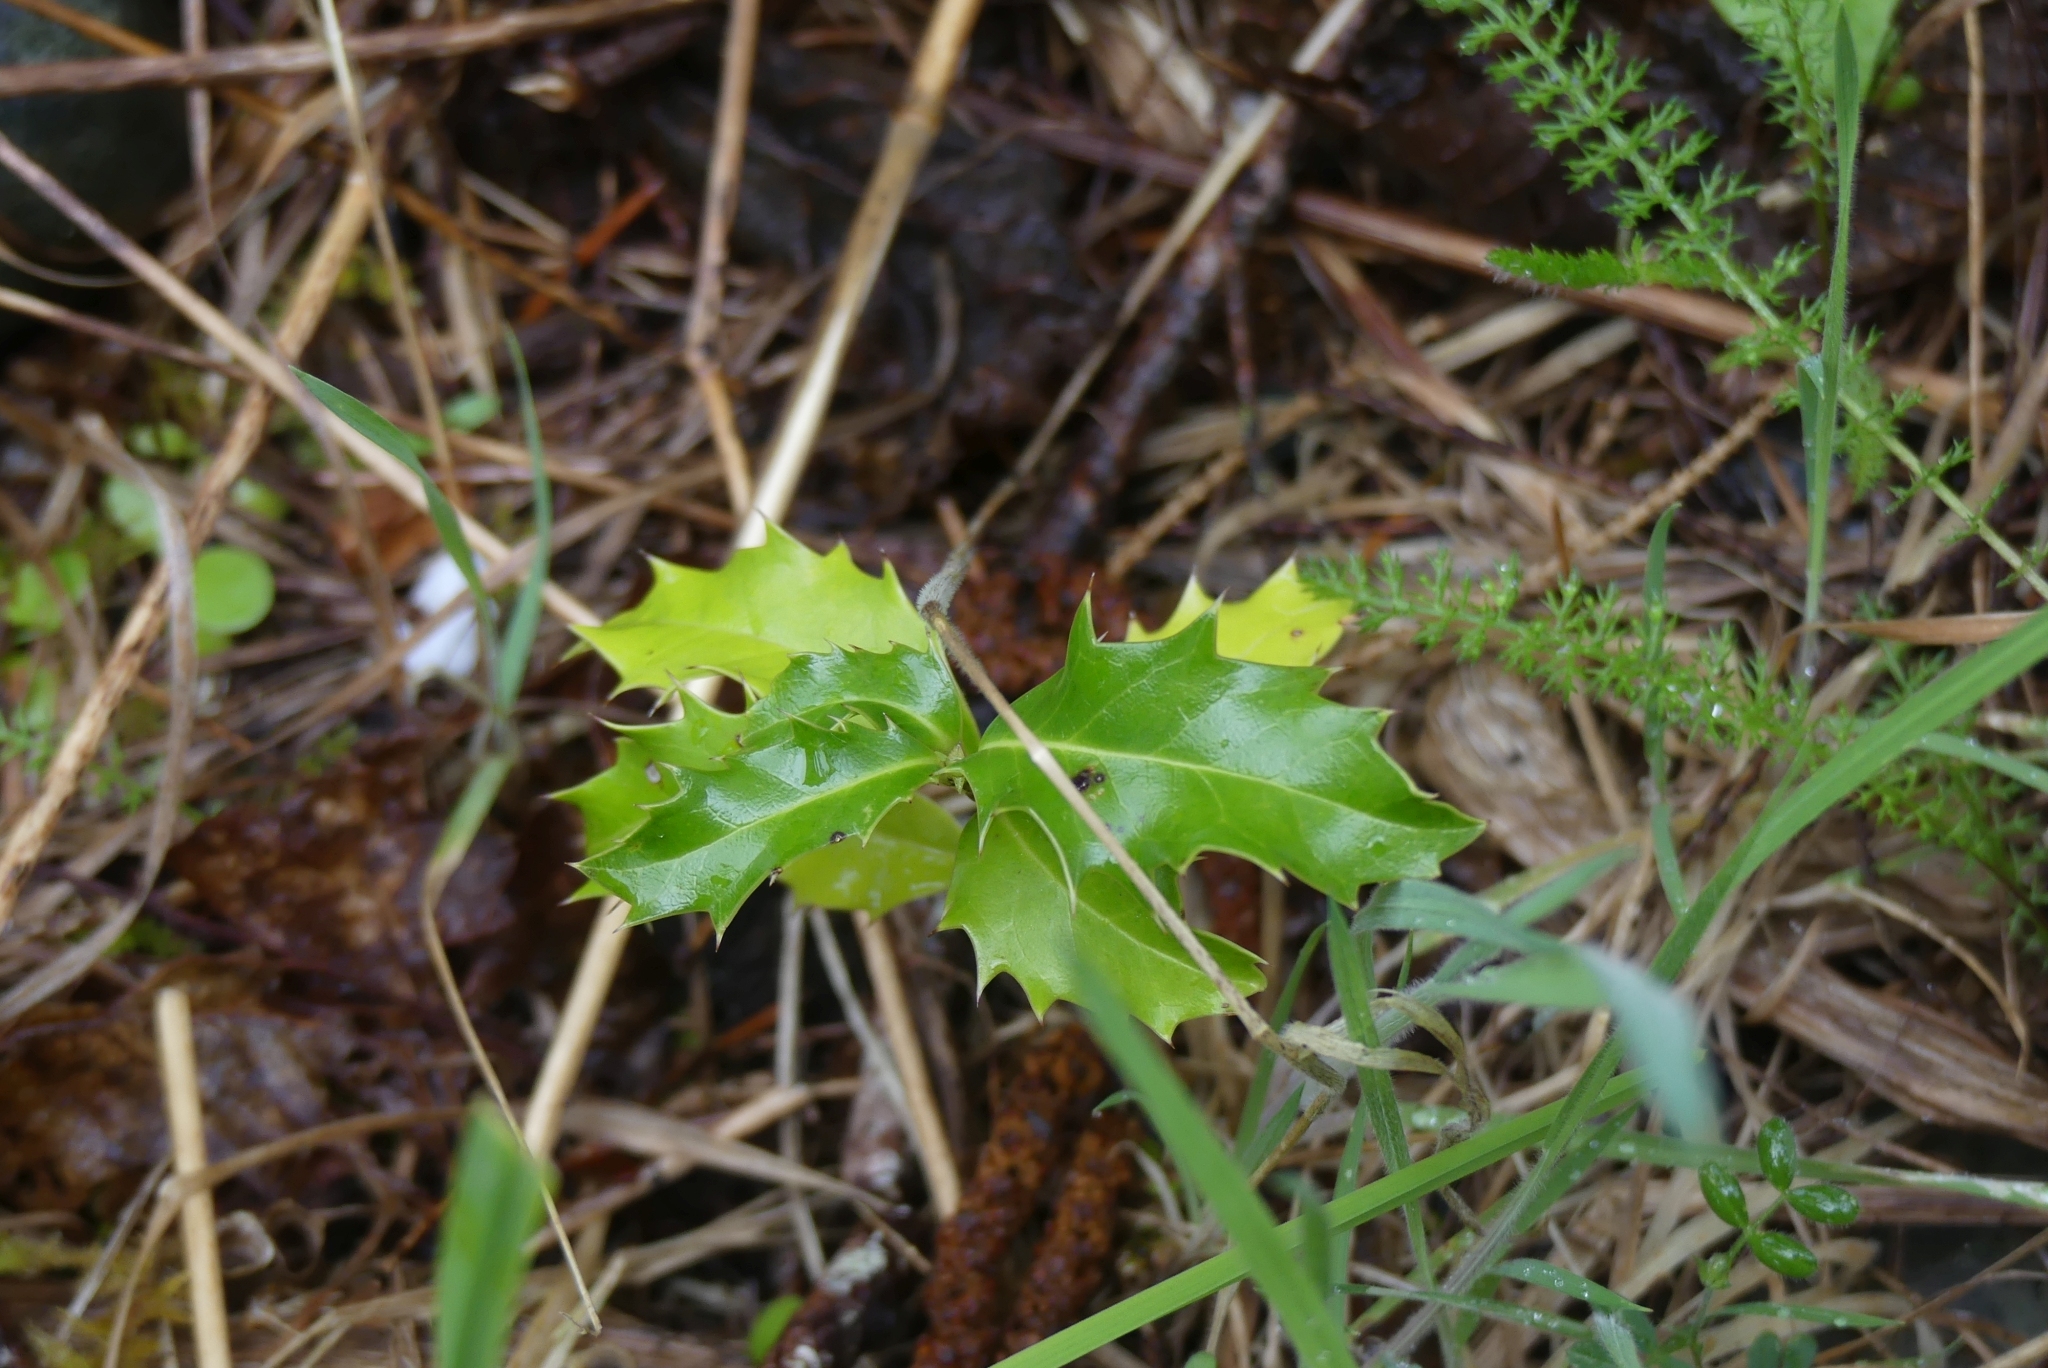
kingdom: Plantae
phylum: Tracheophyta
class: Magnoliopsida
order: Aquifoliales
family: Aquifoliaceae
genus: Ilex
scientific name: Ilex aquifolium
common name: English holly
